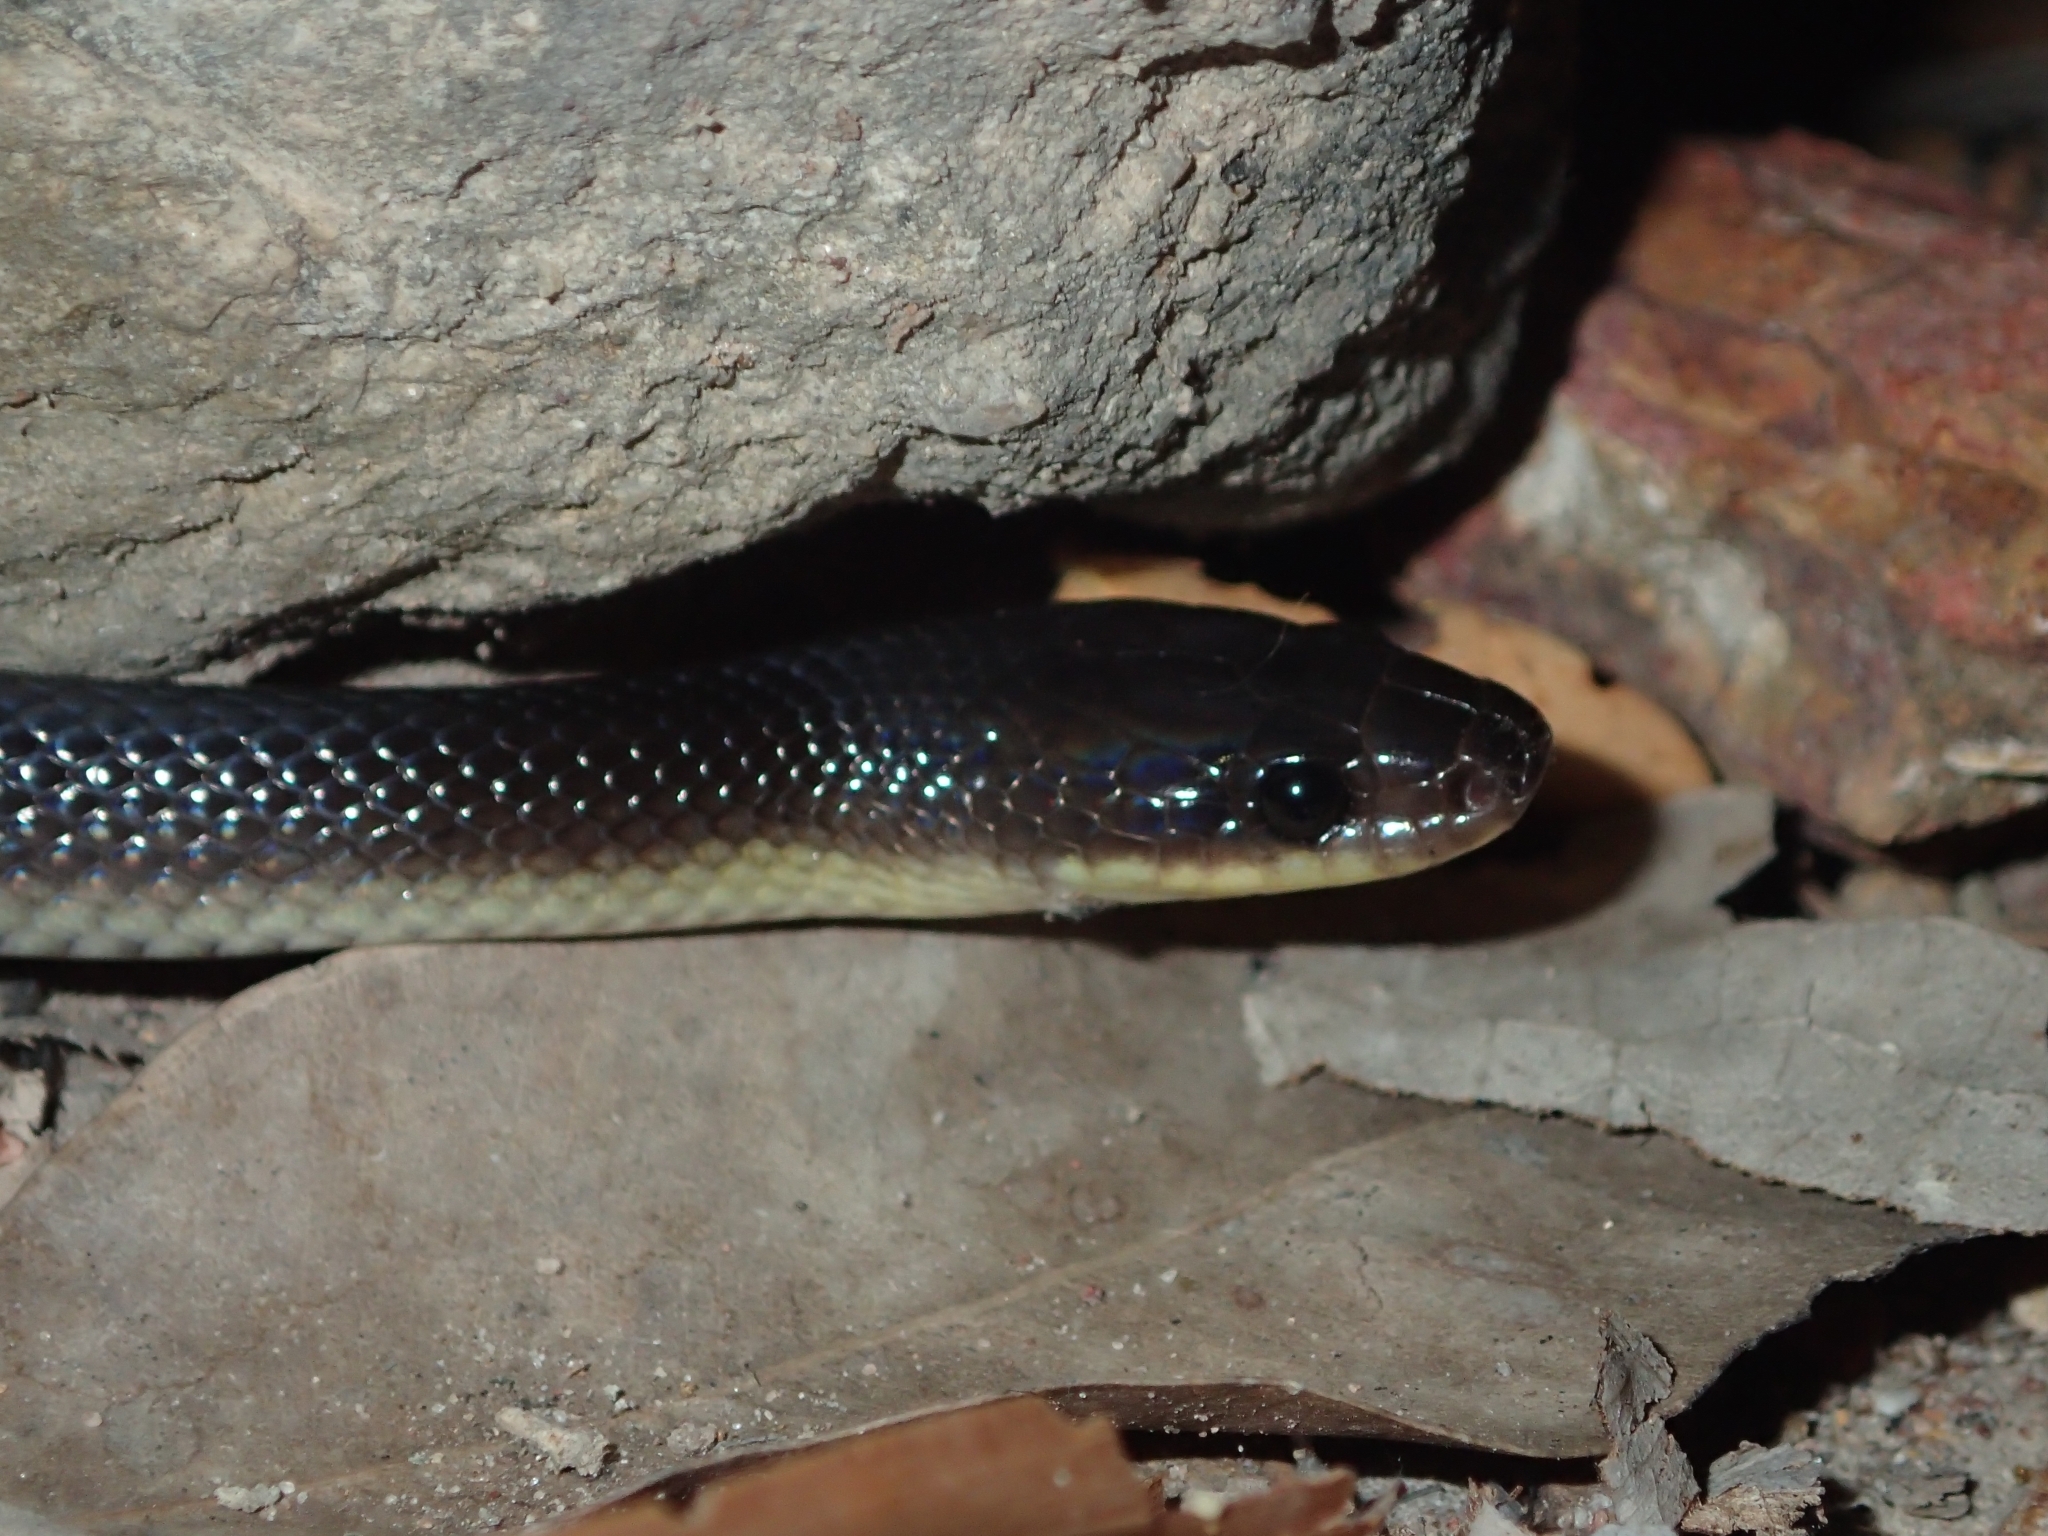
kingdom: Animalia
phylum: Chordata
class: Squamata
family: Colubridae
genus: Stegonotus
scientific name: Stegonotus australis
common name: Australian groundsnake
